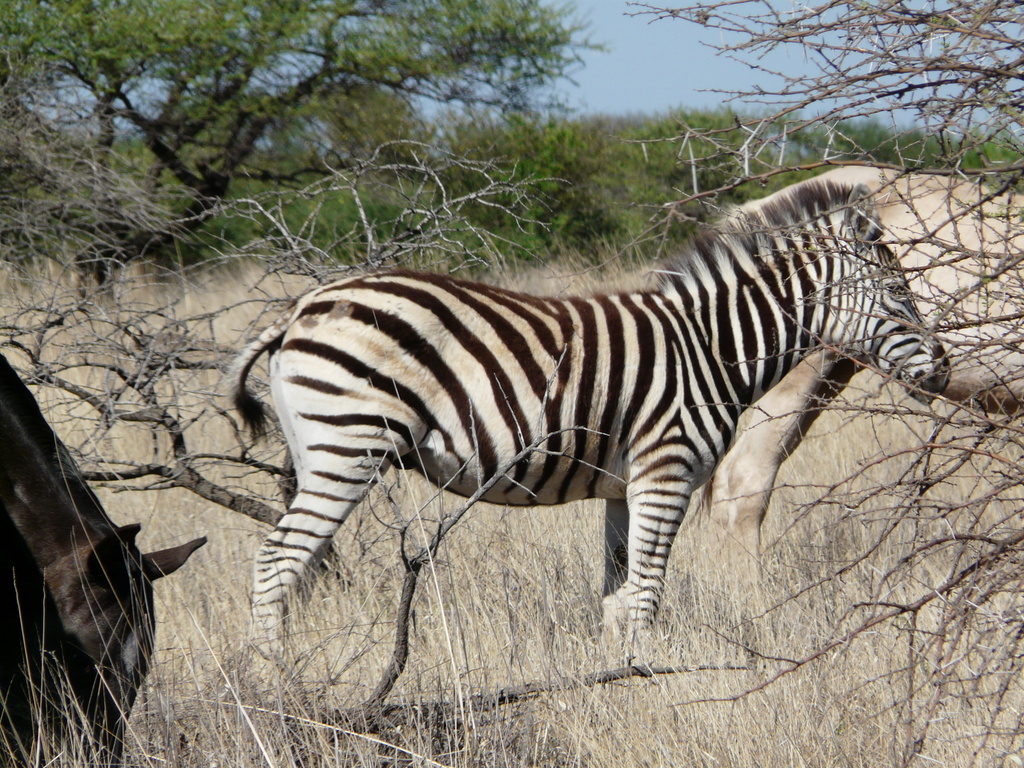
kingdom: Animalia
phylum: Chordata
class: Mammalia
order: Perissodactyla
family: Equidae
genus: Equus
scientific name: Equus quagga
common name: Plains zebra
